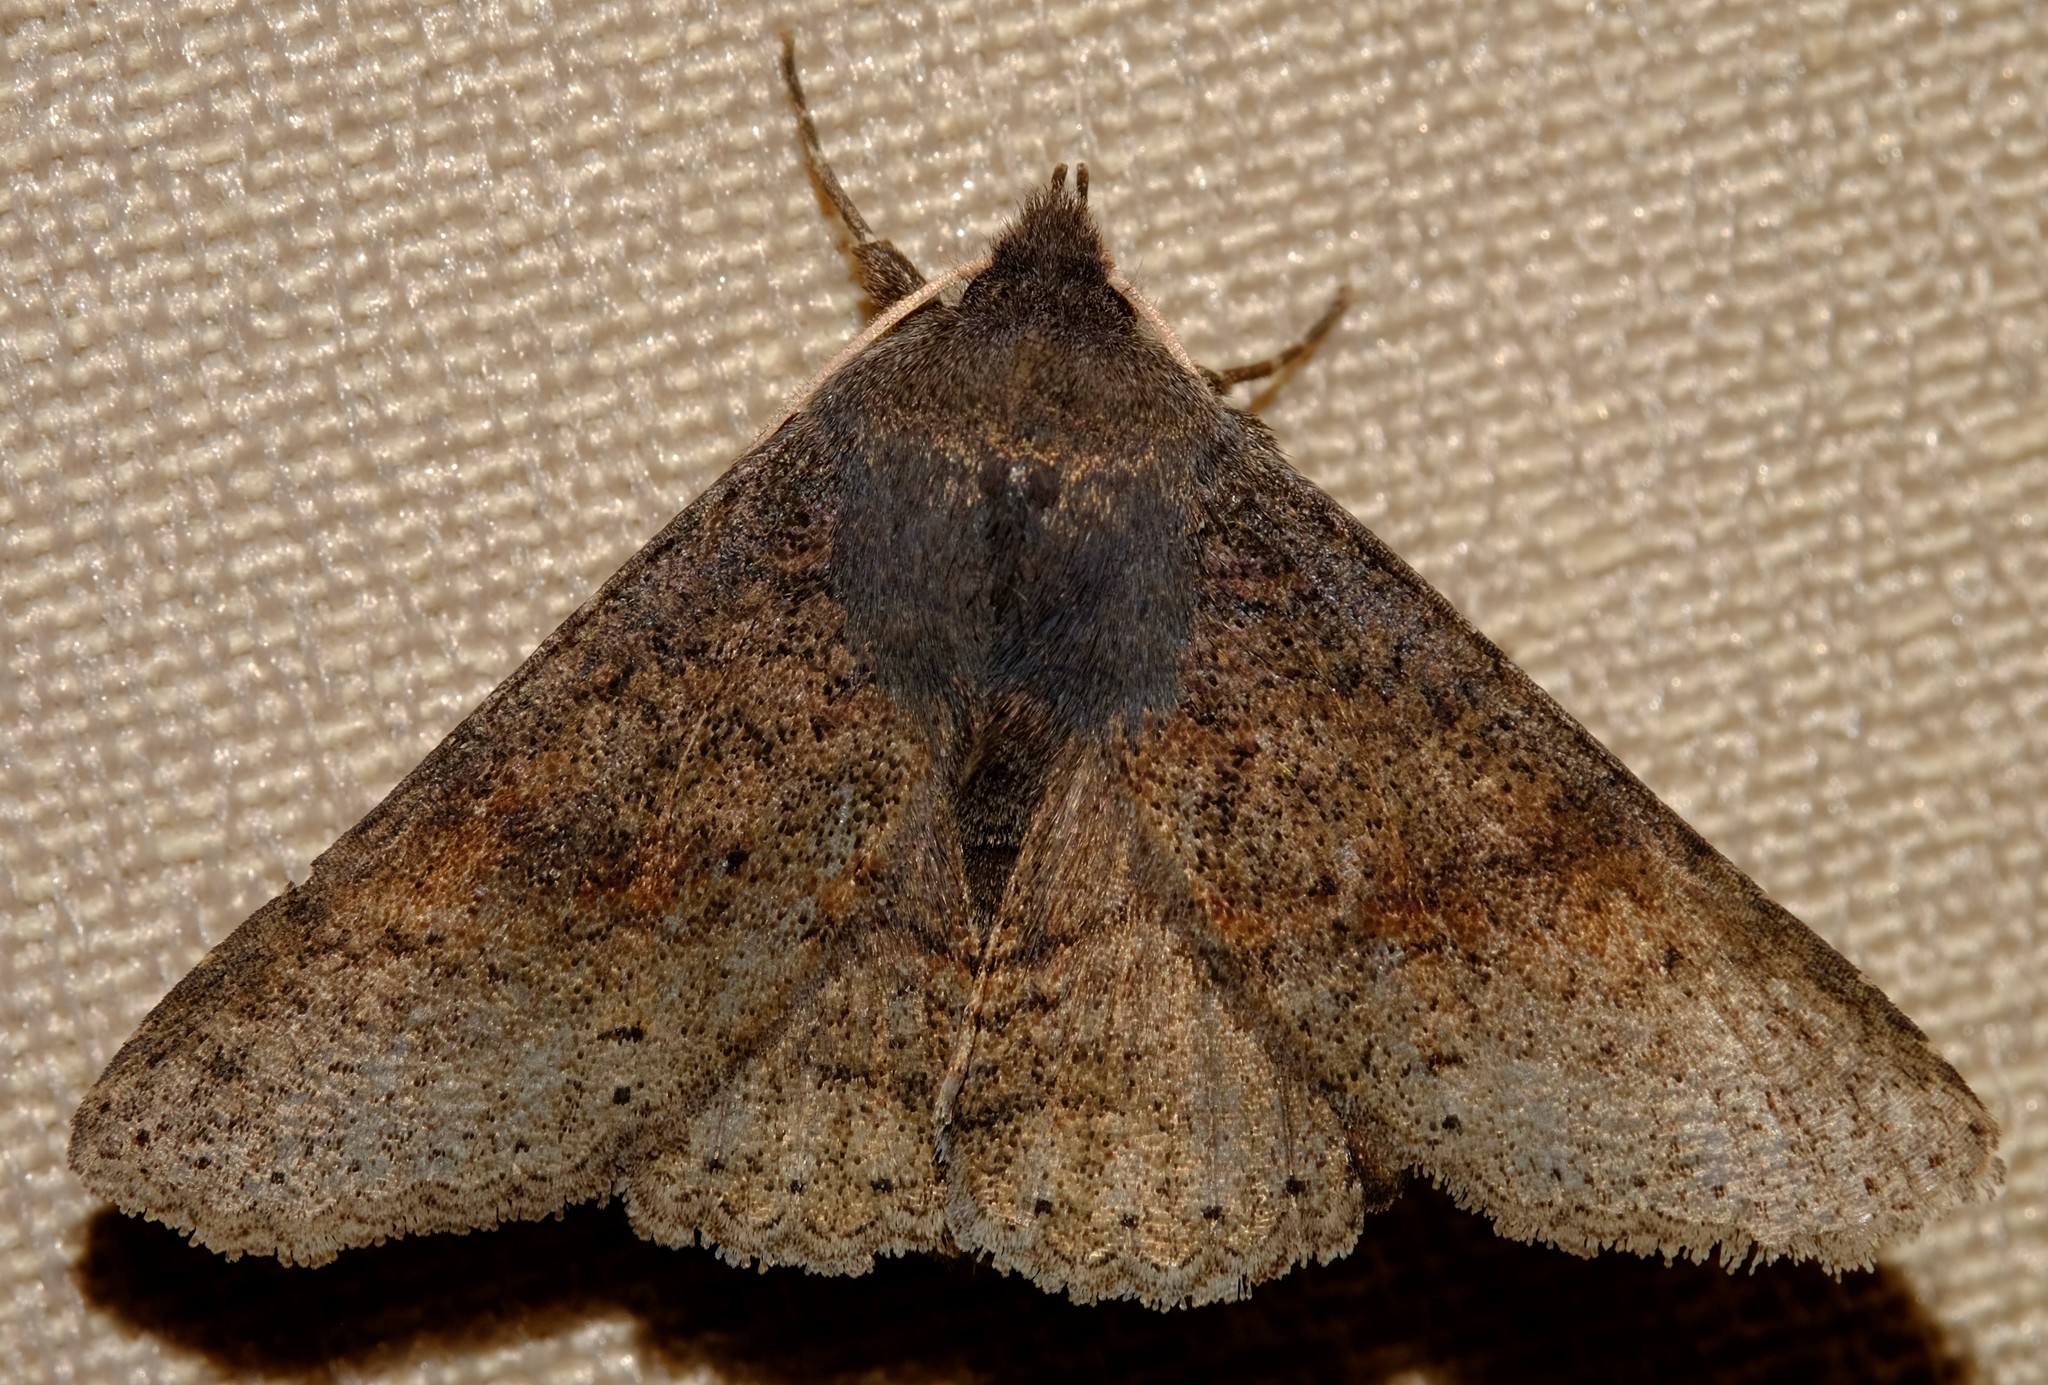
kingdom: Animalia
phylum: Arthropoda
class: Insecta
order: Lepidoptera
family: Erebidae
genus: Praxis
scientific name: Praxis pandesma
